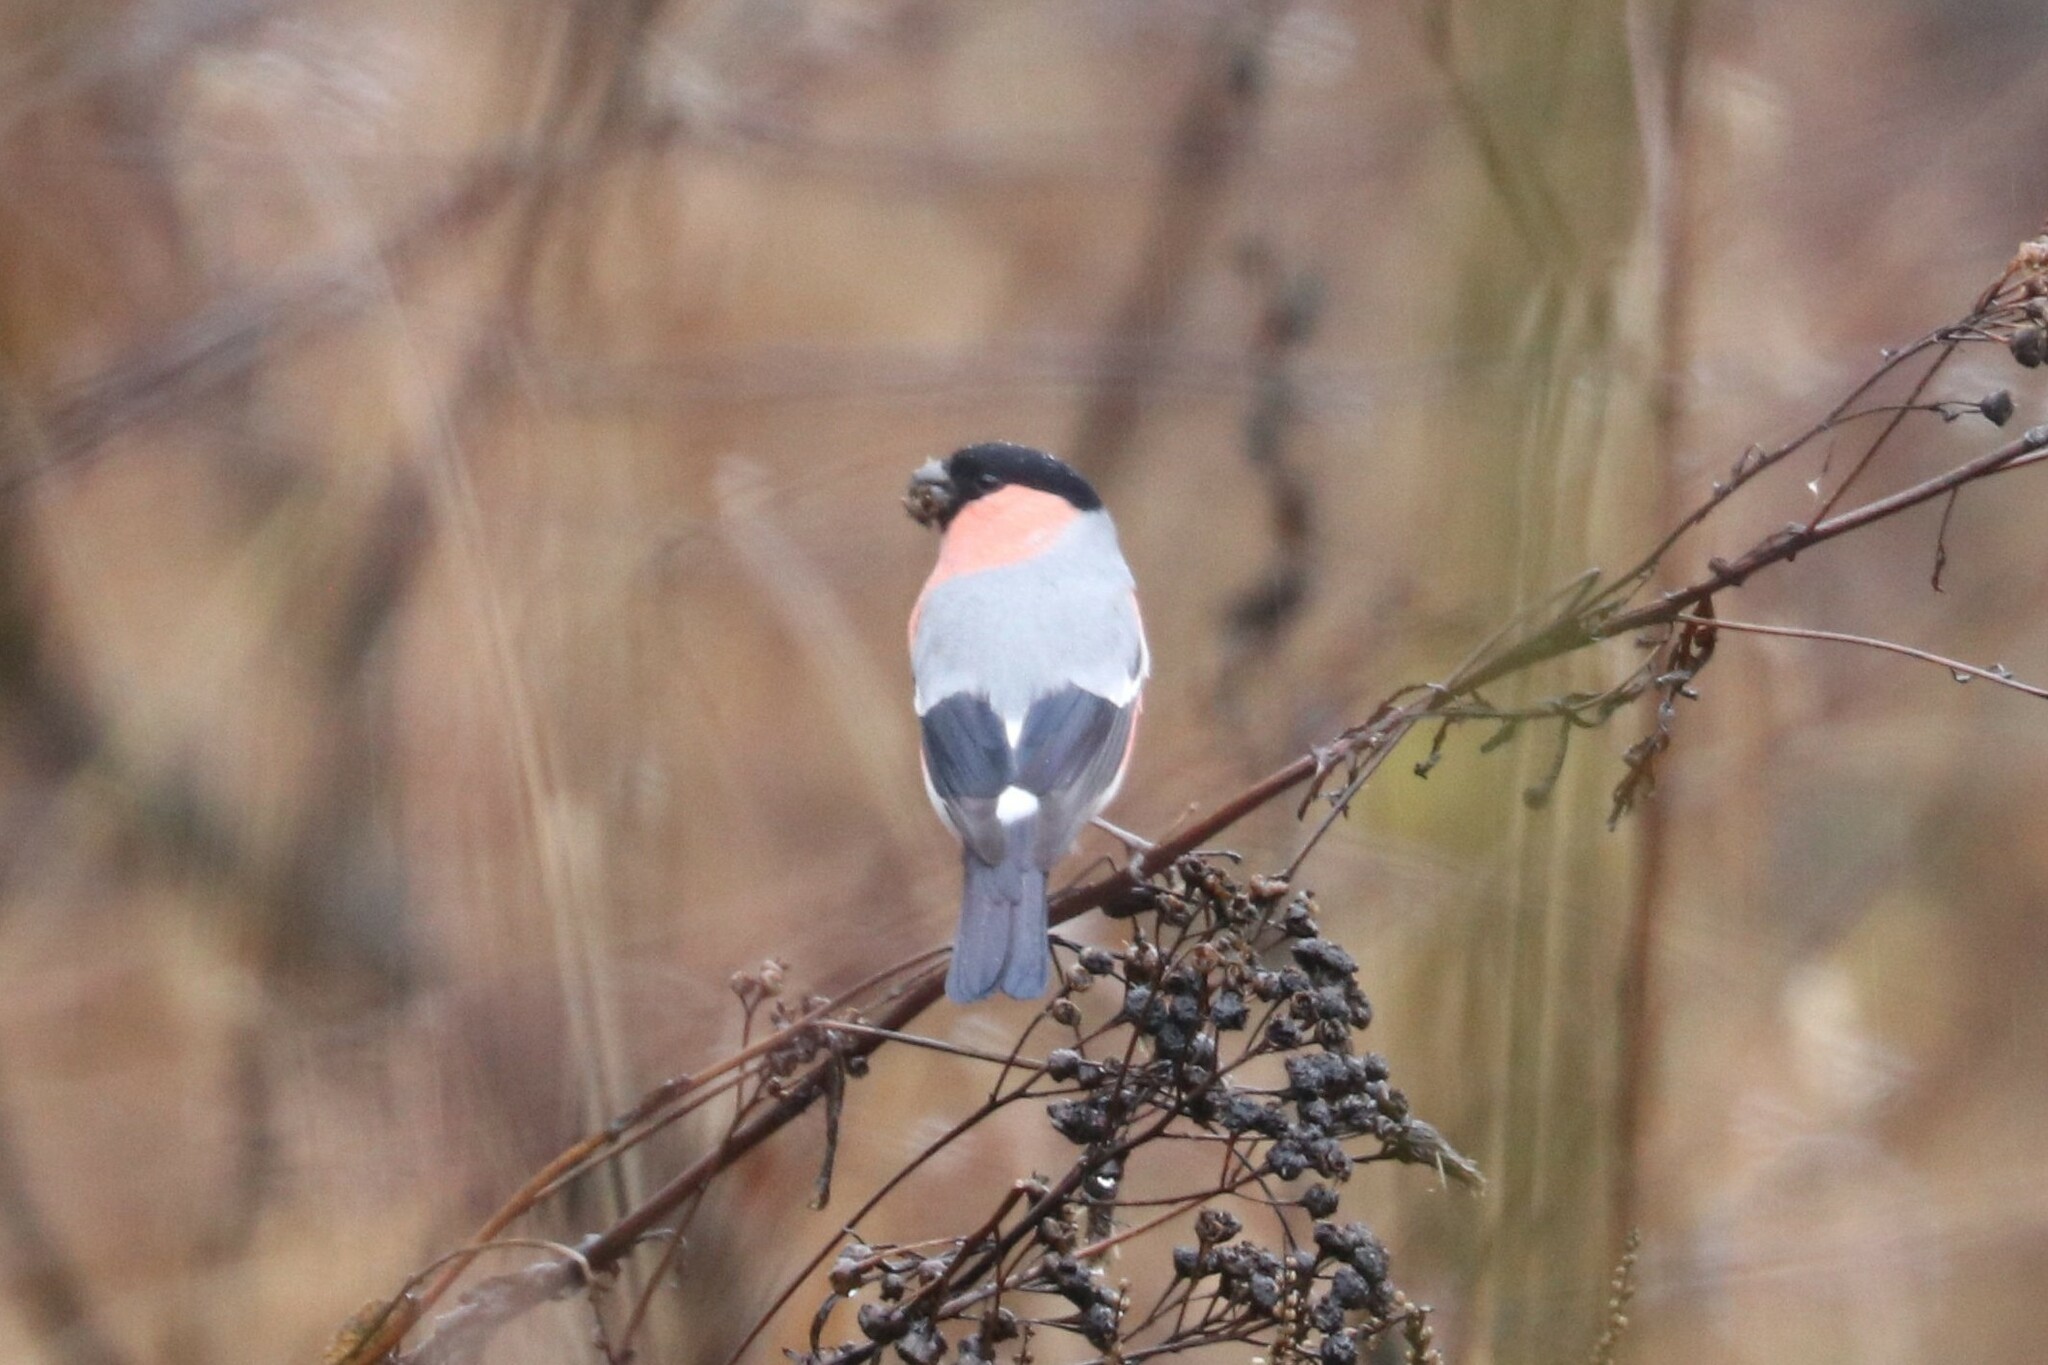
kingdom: Animalia
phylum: Chordata
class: Aves
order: Passeriformes
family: Fringillidae
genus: Pyrrhula
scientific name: Pyrrhula pyrrhula
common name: Eurasian bullfinch
